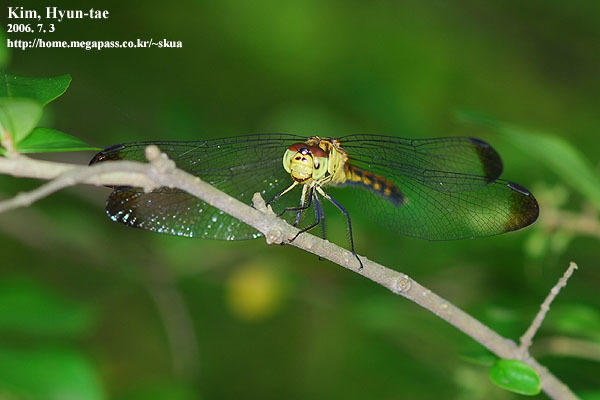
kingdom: Animalia
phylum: Arthropoda
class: Insecta
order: Odonata
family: Libellulidae
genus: Sympetrum
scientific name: Sympetrum eroticum
